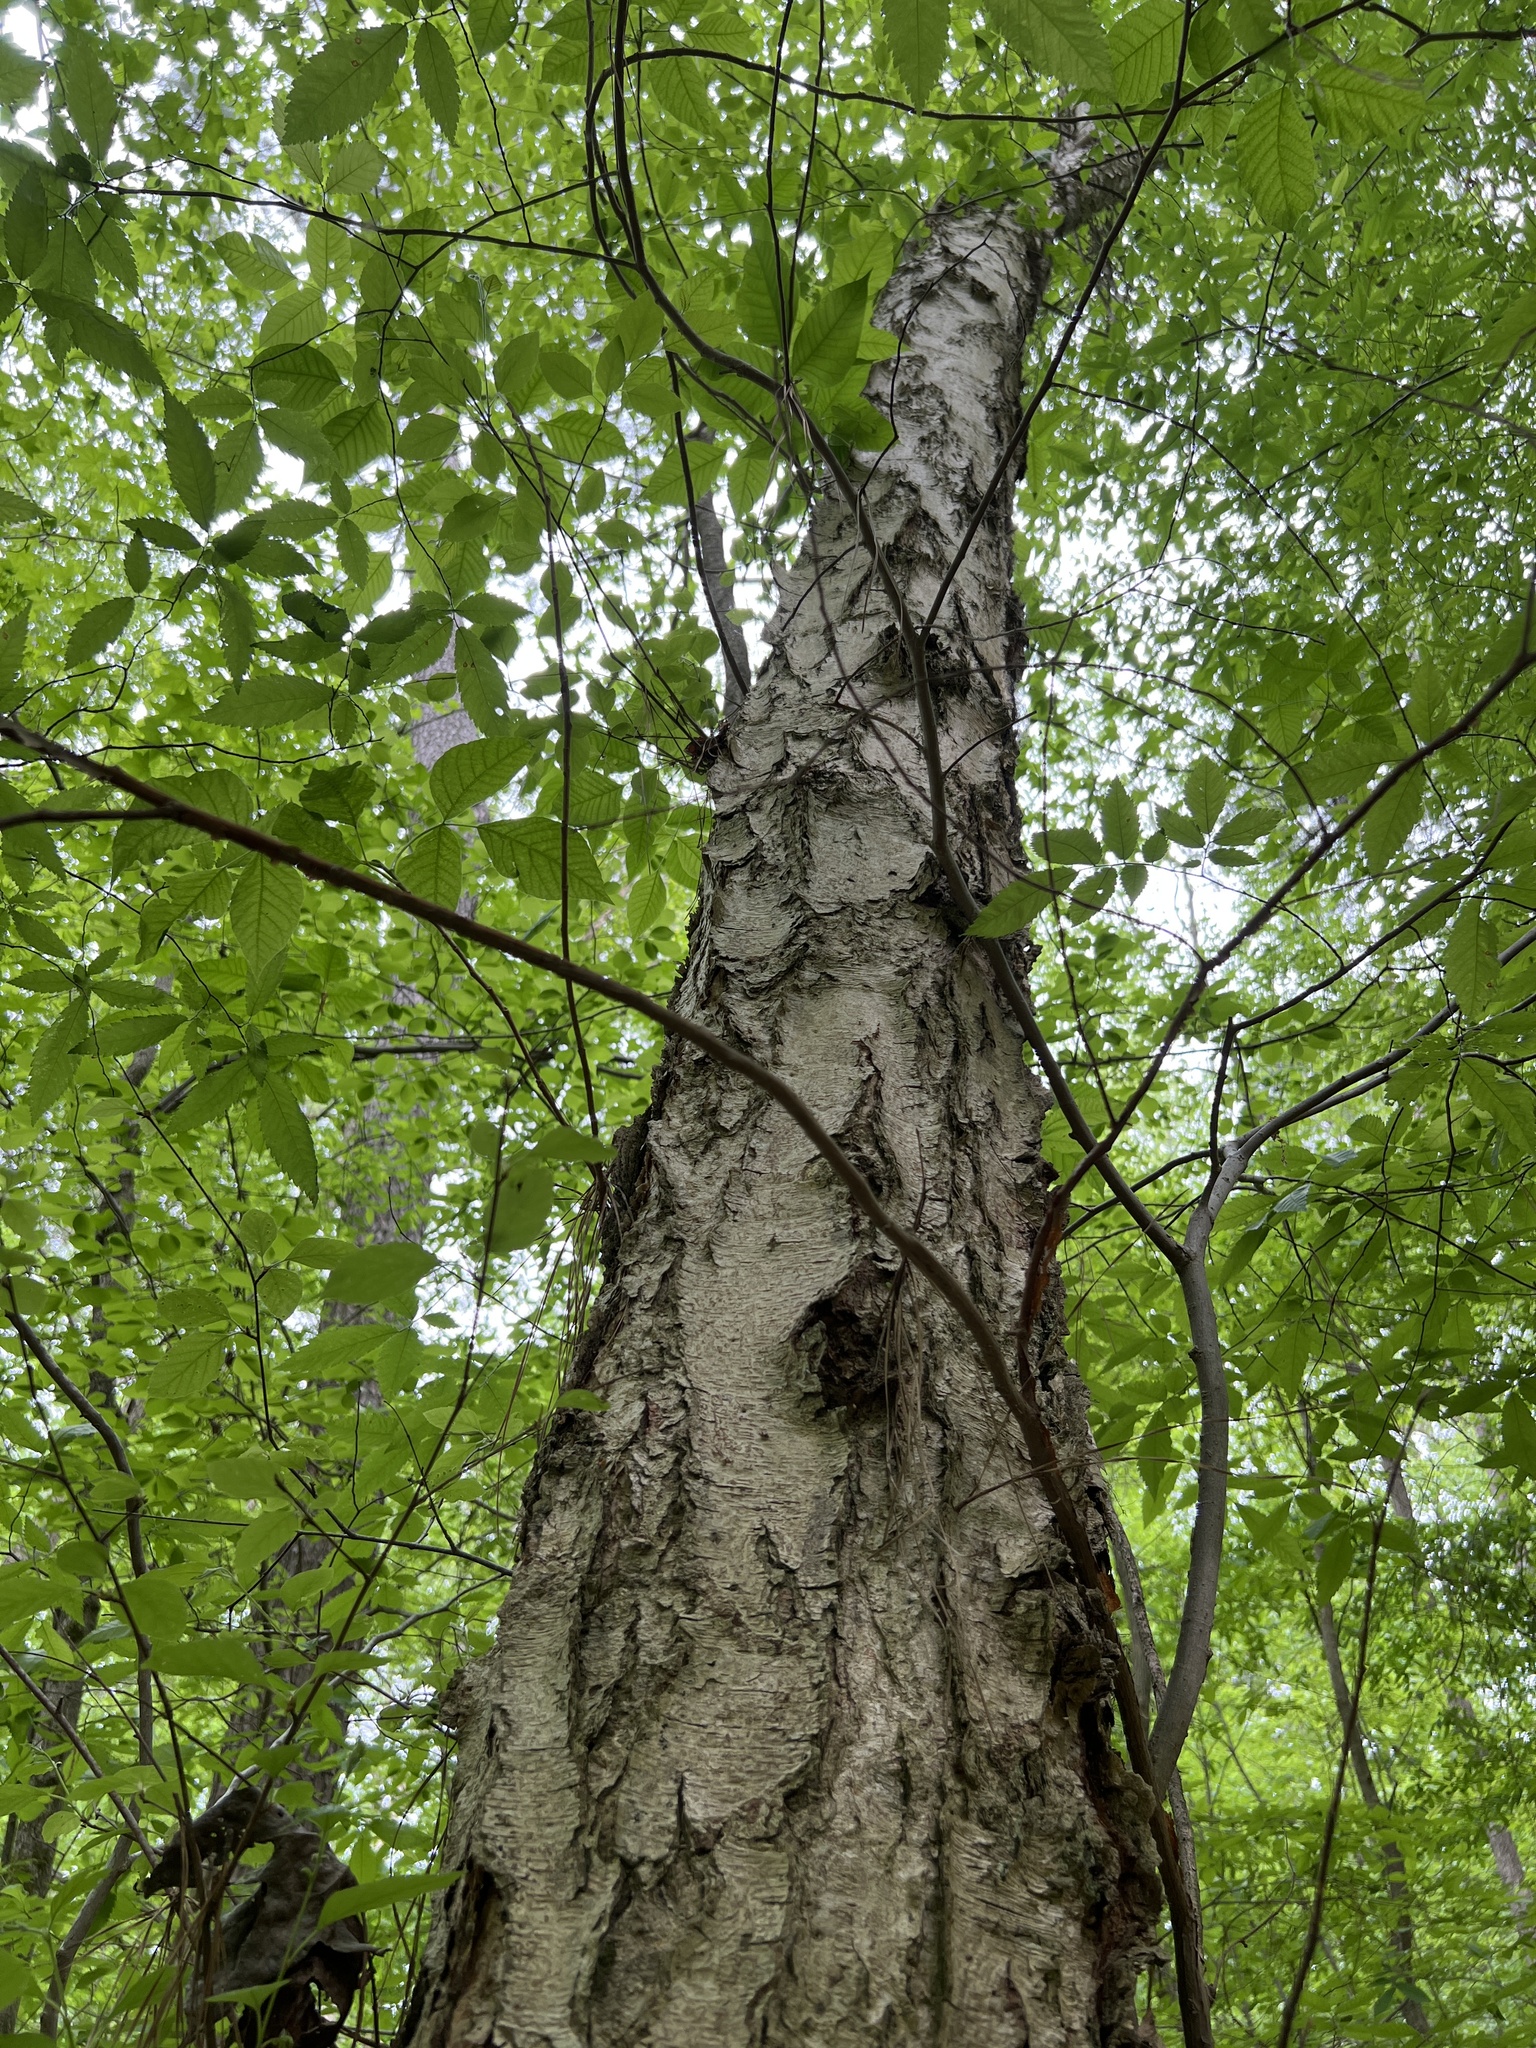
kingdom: Plantae
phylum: Tracheophyta
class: Magnoliopsida
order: Fagales
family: Betulaceae
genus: Betula
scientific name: Betula nigra
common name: Black birch
